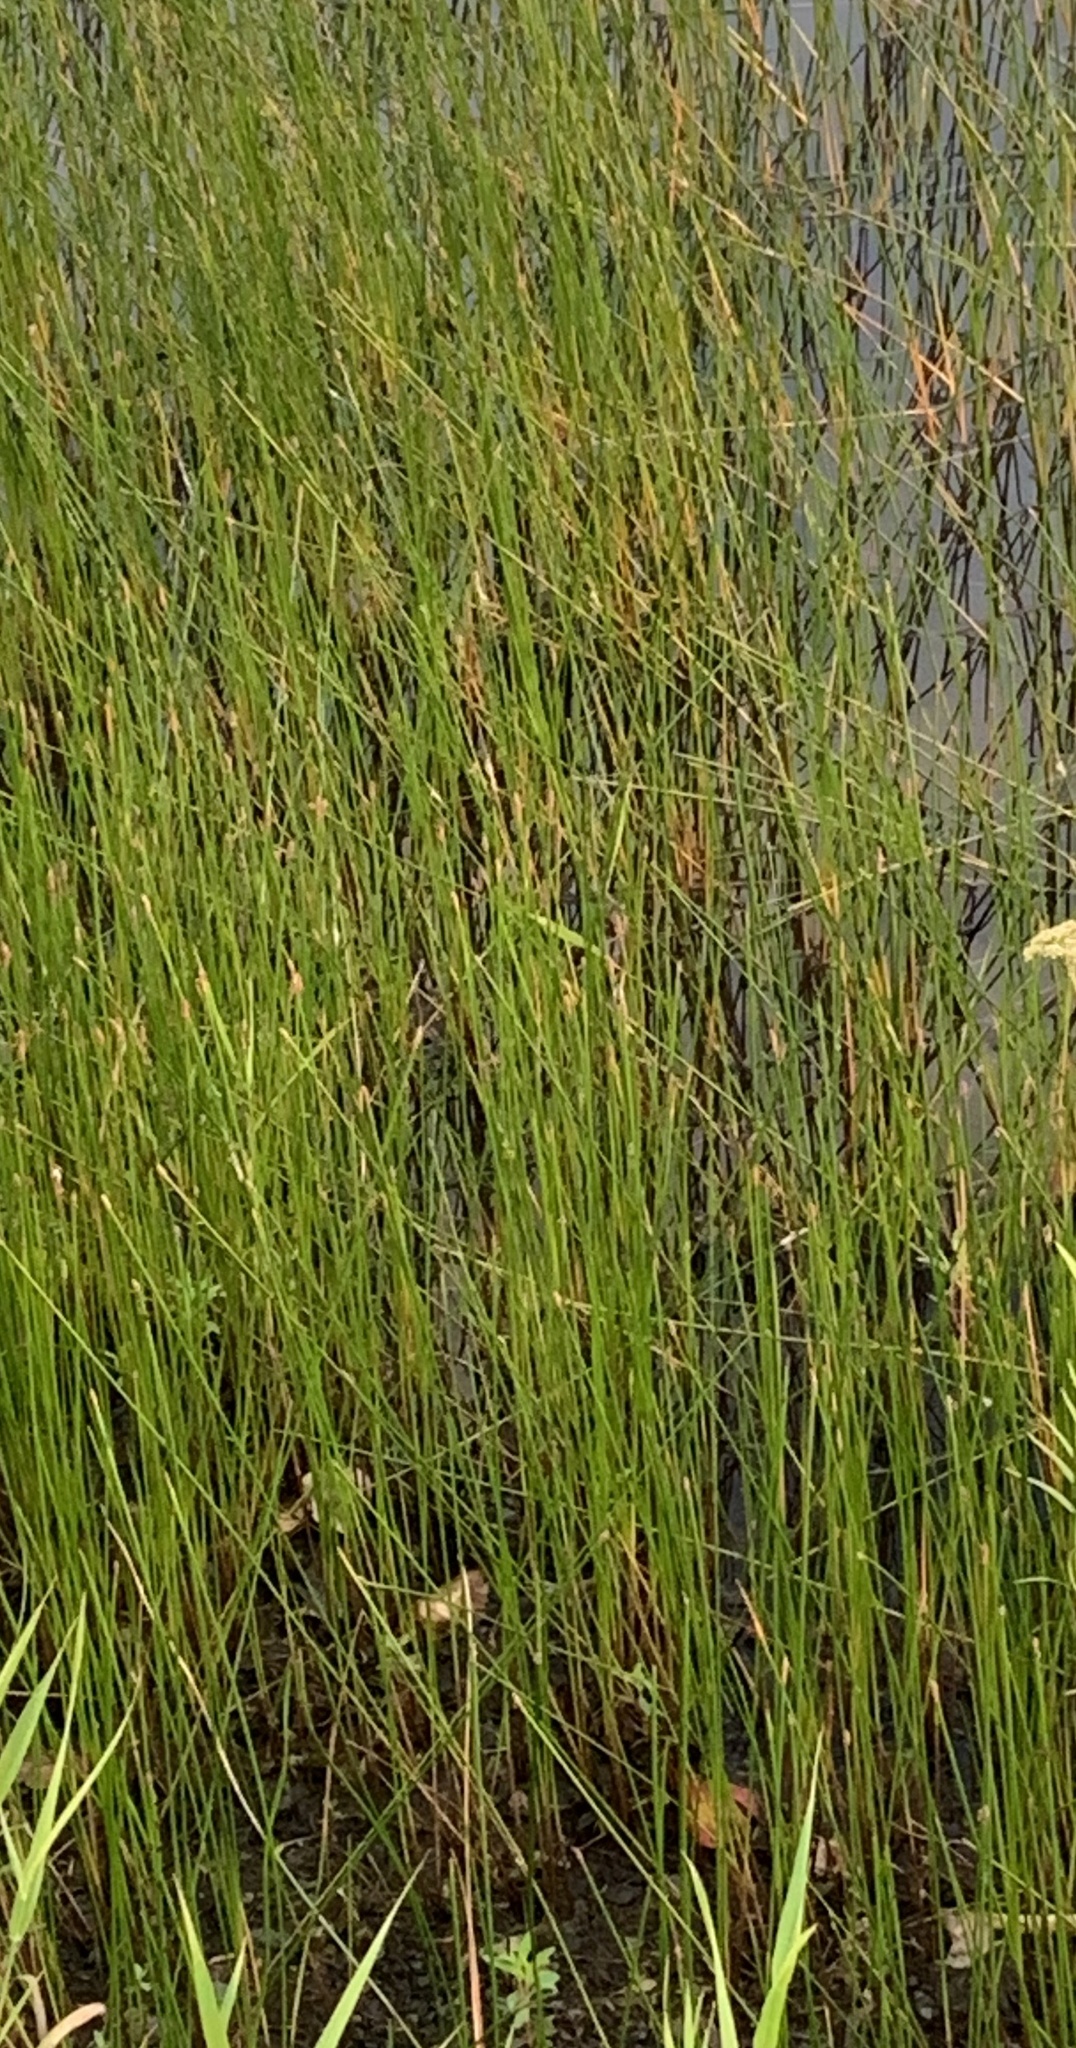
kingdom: Plantae
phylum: Tracheophyta
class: Liliopsida
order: Poales
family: Cyperaceae
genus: Eleocharis
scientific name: Eleocharis palustris
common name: Common spike-rush
